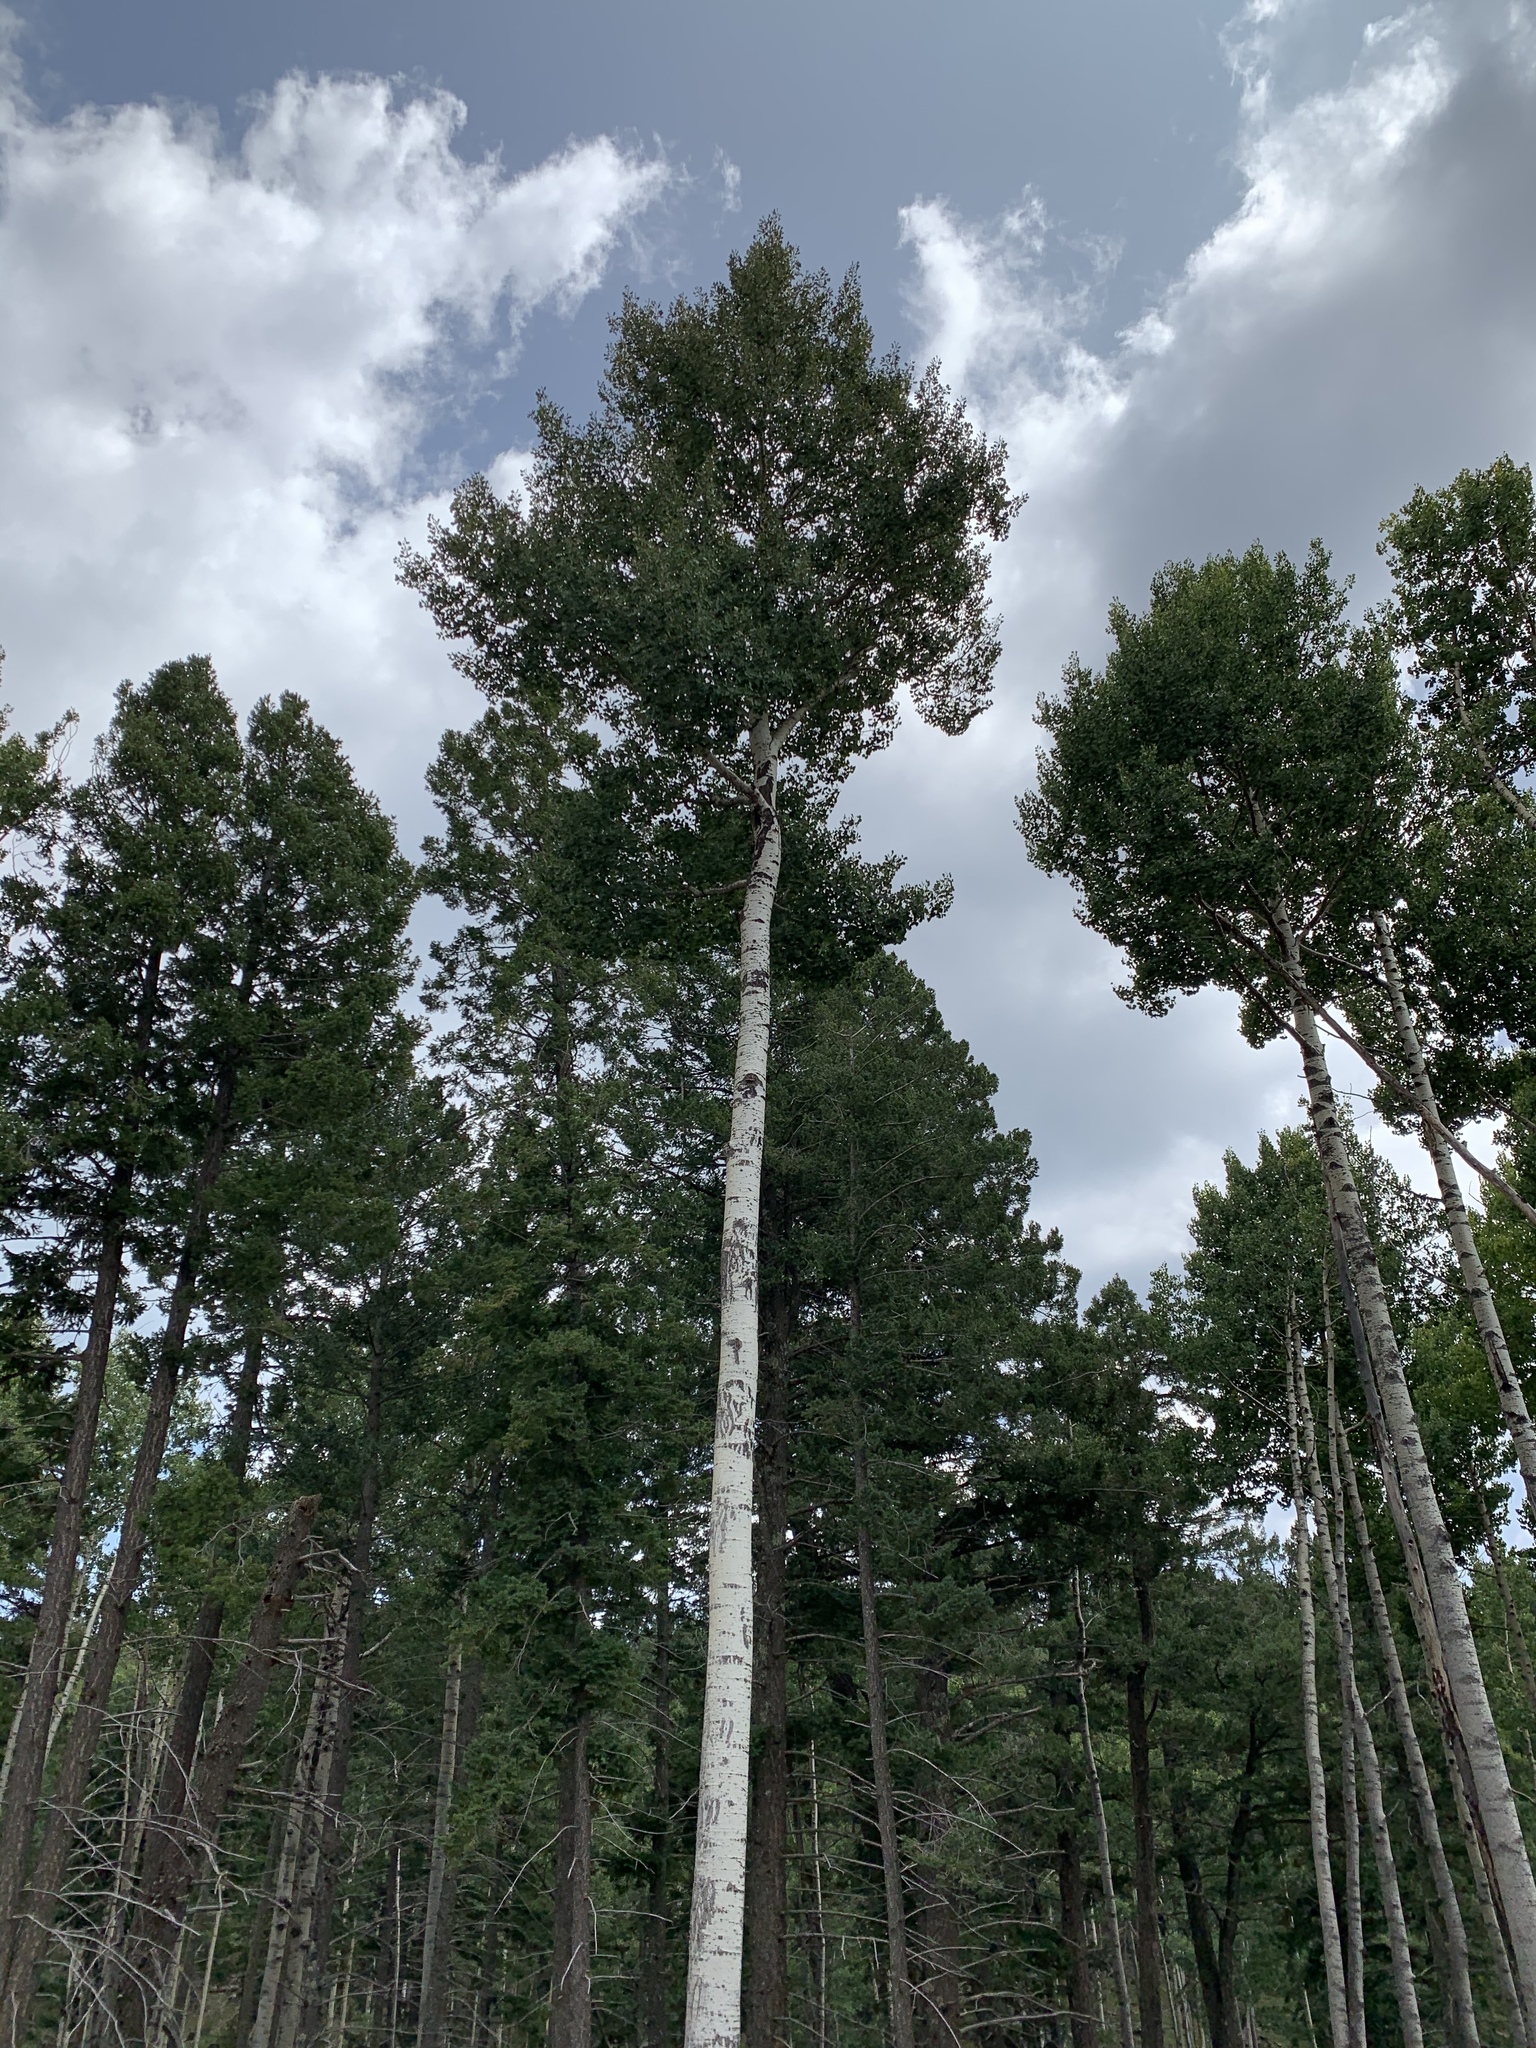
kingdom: Plantae
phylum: Tracheophyta
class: Magnoliopsida
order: Malpighiales
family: Salicaceae
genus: Populus
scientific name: Populus tremuloides
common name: Quaking aspen
